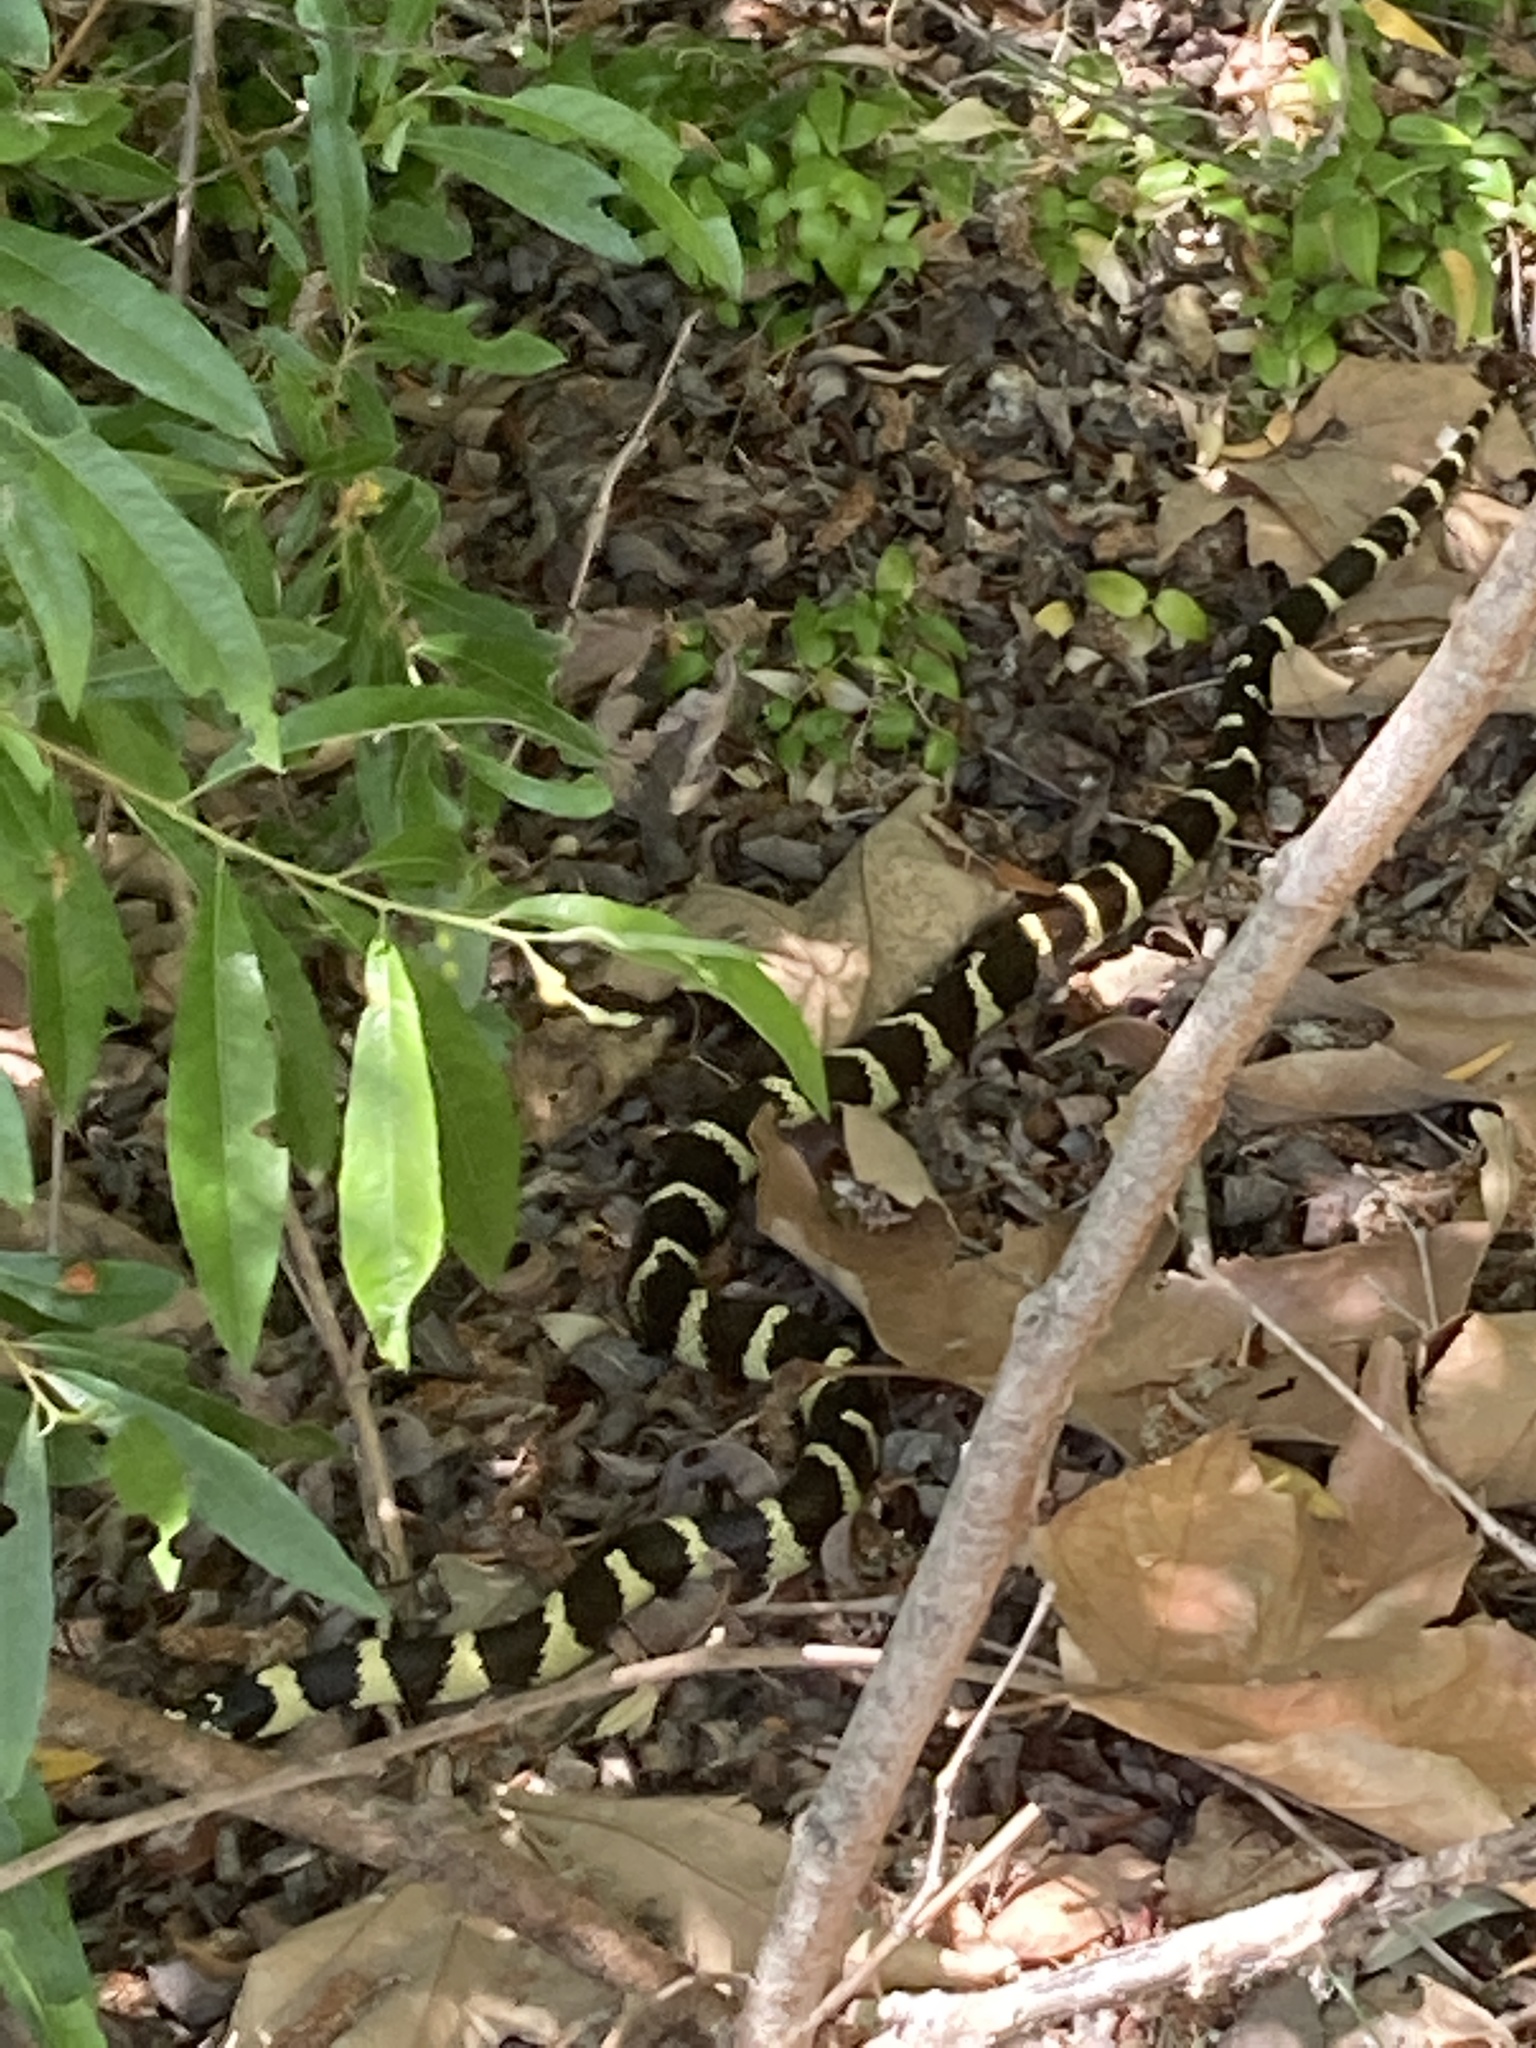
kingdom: Animalia
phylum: Chordata
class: Squamata
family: Colubridae
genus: Lampropeltis
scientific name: Lampropeltis californiae
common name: California kingsnake
